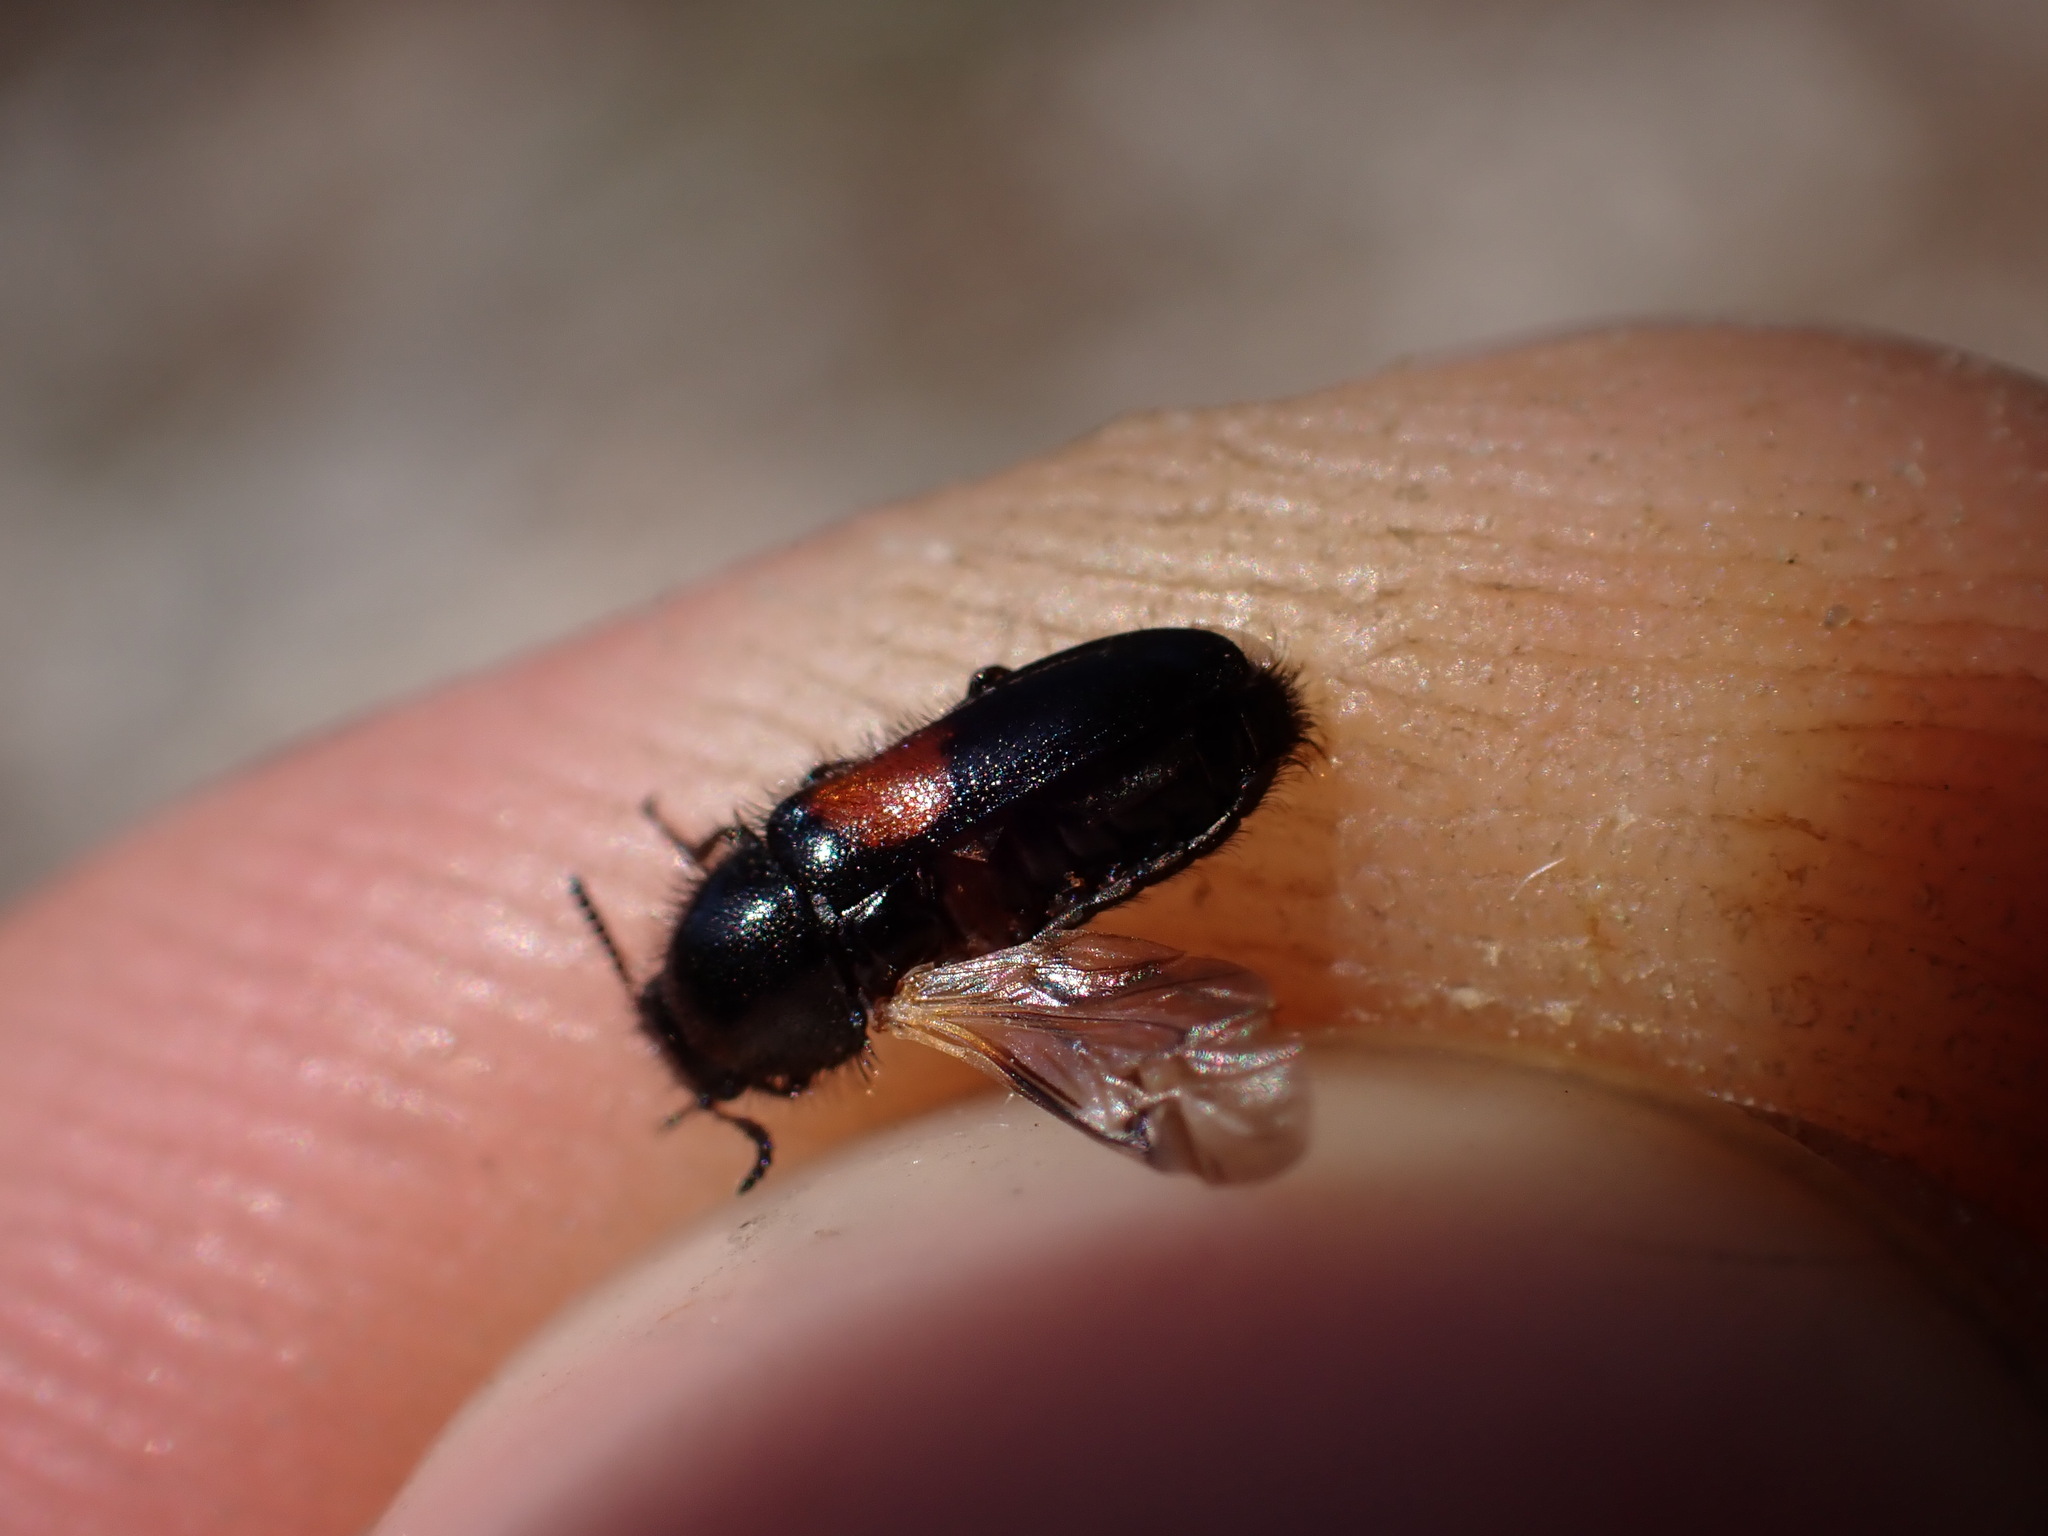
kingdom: Animalia
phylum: Arthropoda
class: Insecta
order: Coleoptera
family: Melyridae
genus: Divales
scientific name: Divales bipustulatus
